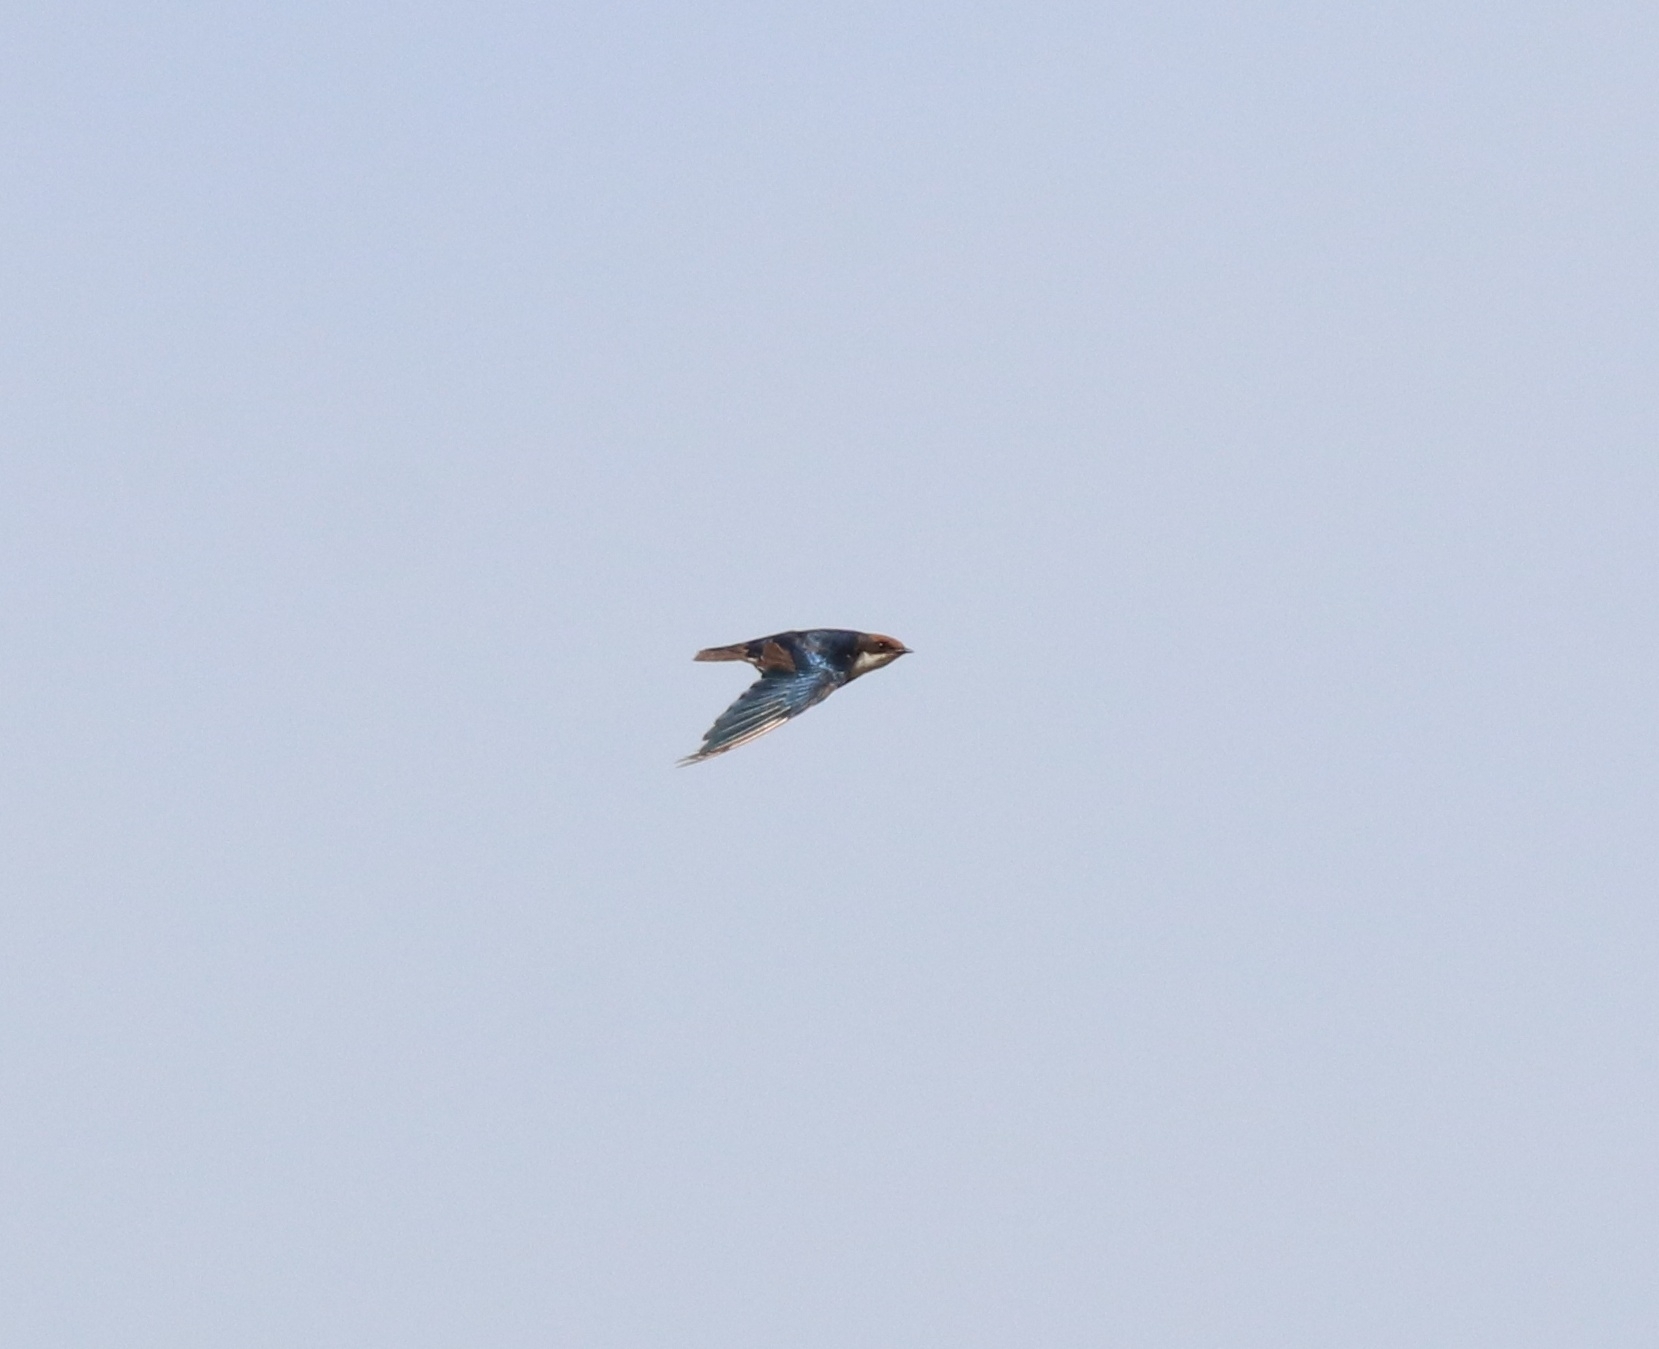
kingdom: Animalia
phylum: Chordata
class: Aves
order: Passeriformes
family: Hirundinidae
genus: Hirundo
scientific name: Hirundo smithii
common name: Wire-tailed swallow
